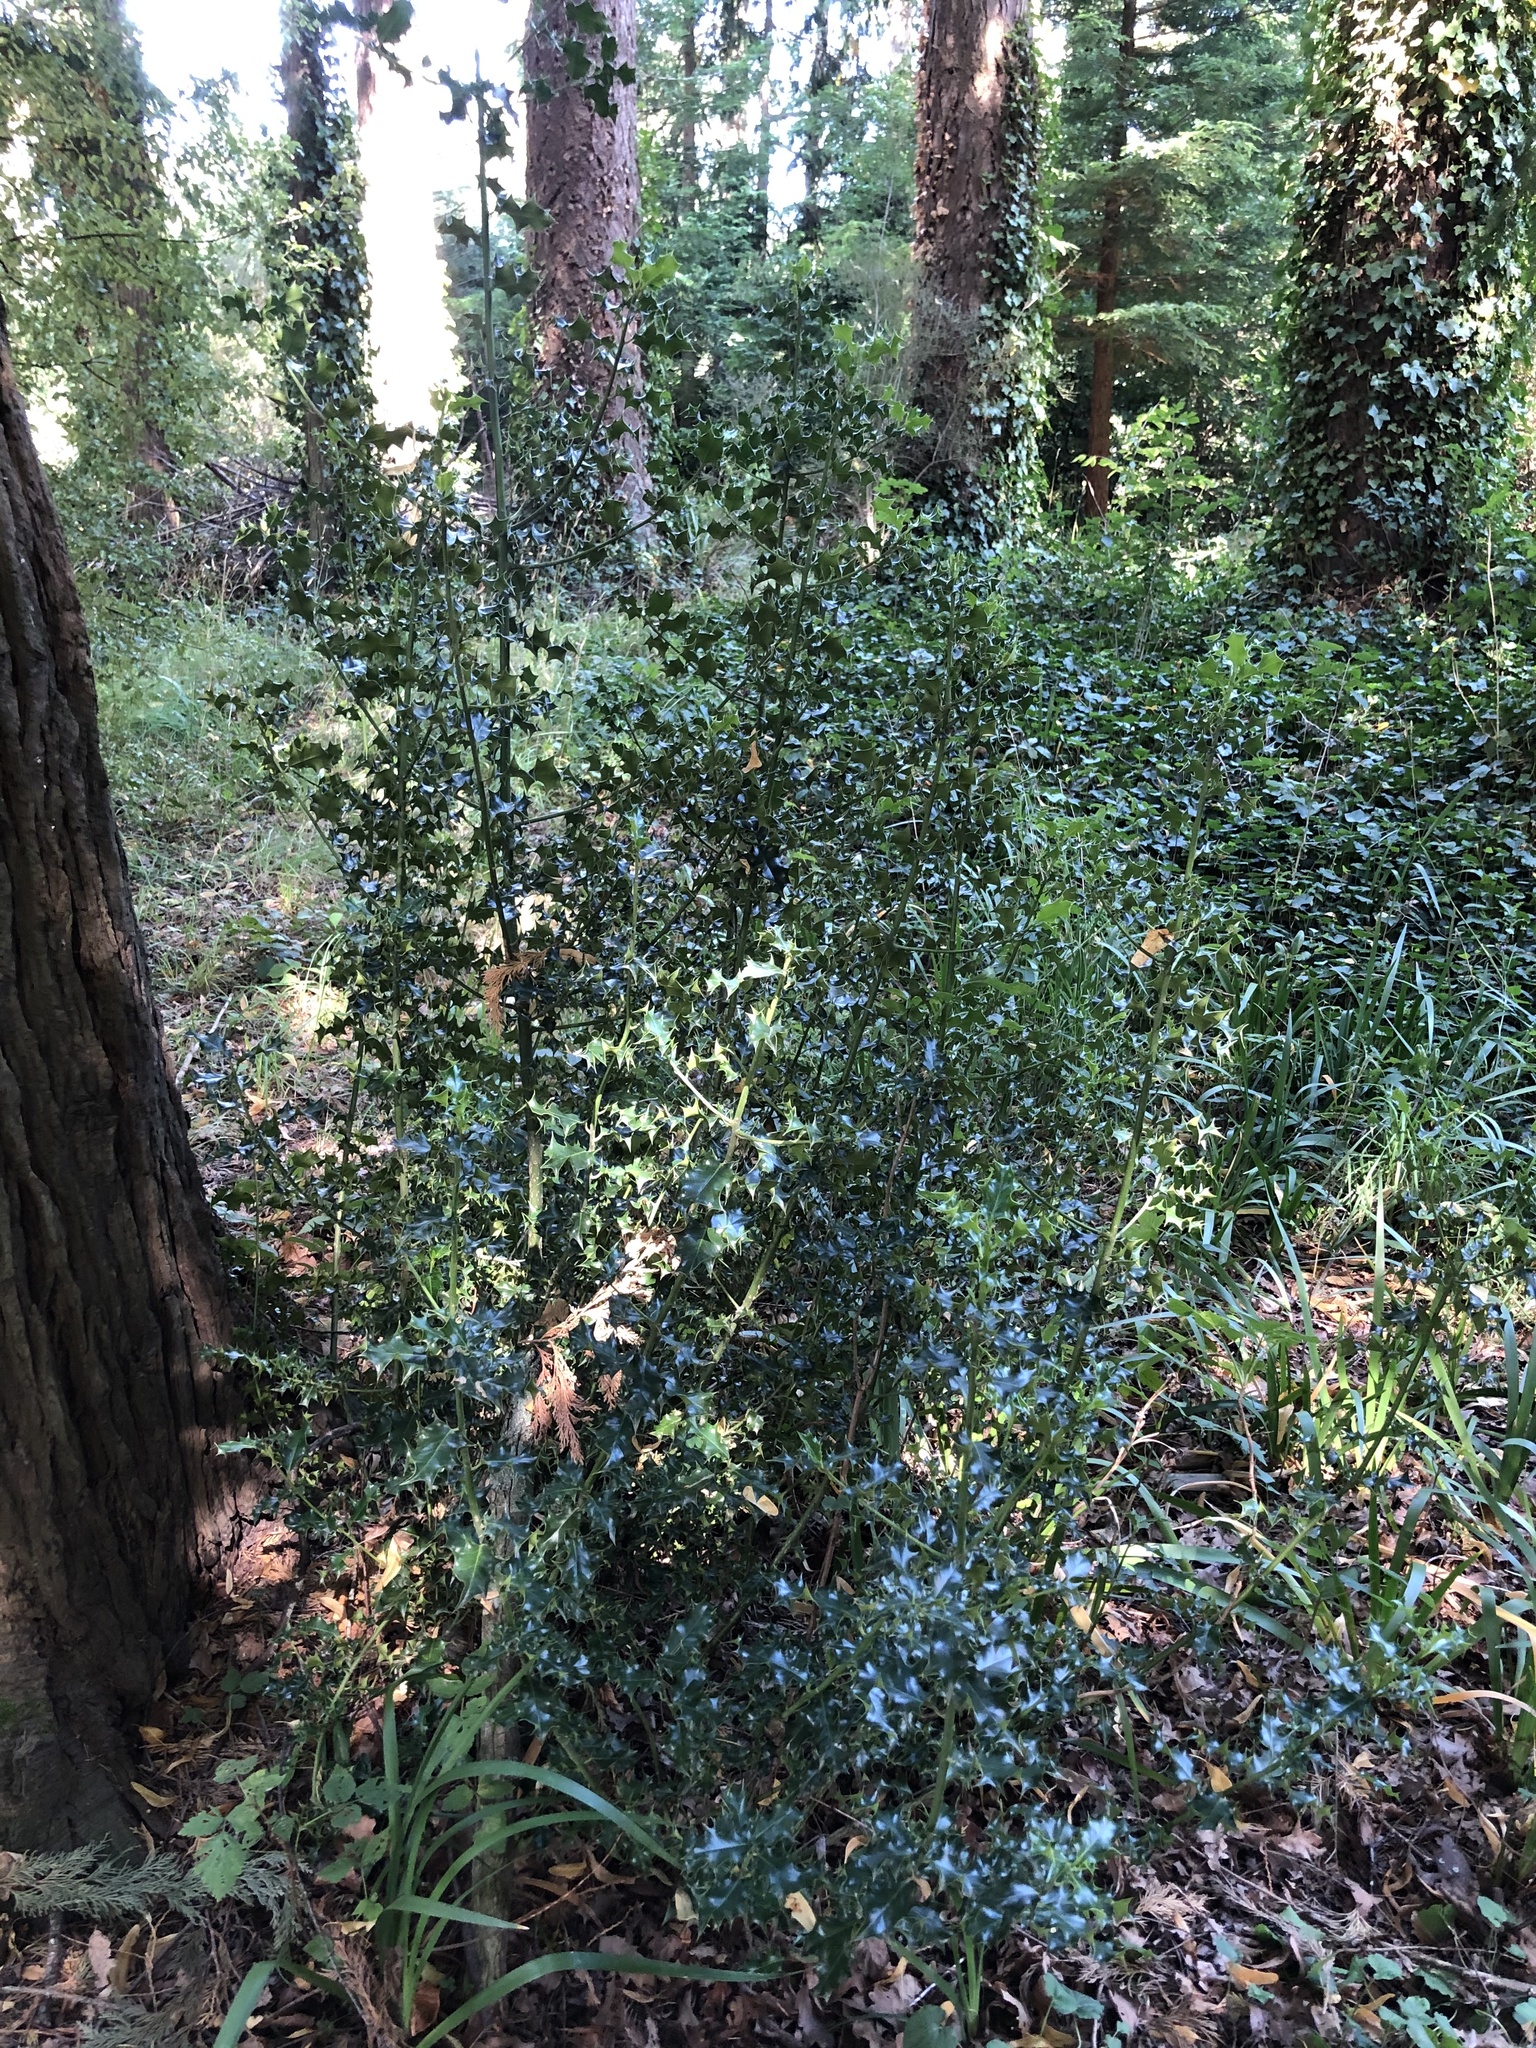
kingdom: Plantae
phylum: Tracheophyta
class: Magnoliopsida
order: Aquifoliales
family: Aquifoliaceae
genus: Ilex
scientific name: Ilex aquifolium
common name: English holly
